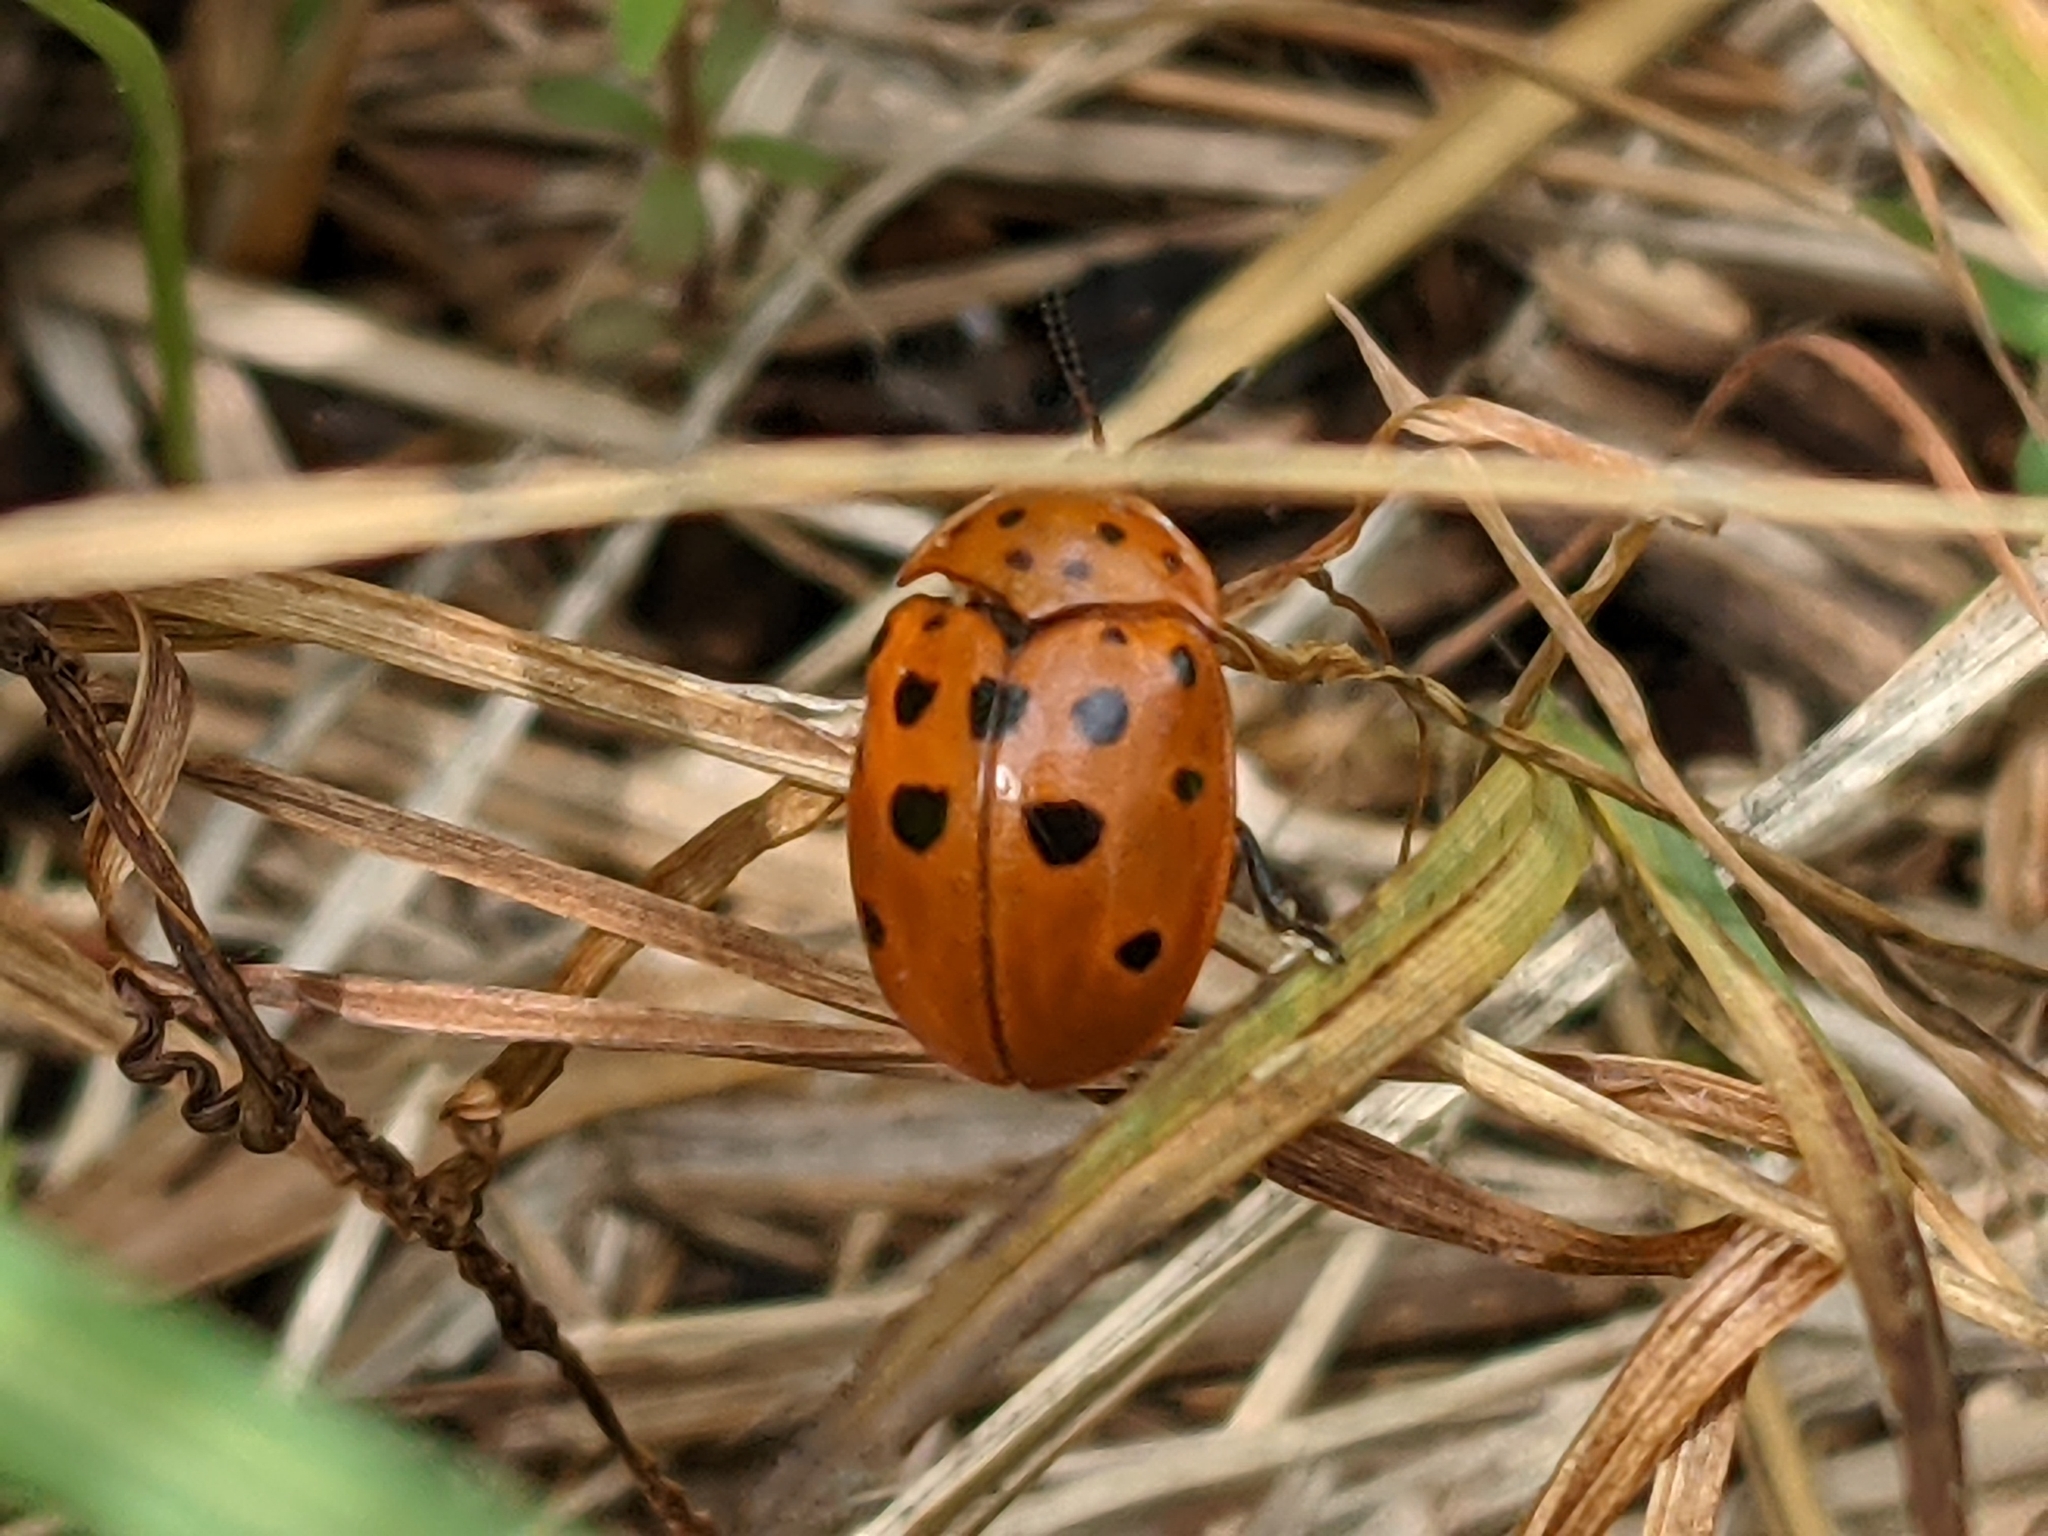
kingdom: Animalia
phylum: Arthropoda
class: Insecta
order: Coleoptera
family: Chrysomelidae
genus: Chelymorpha
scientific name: Chelymorpha cassidea
